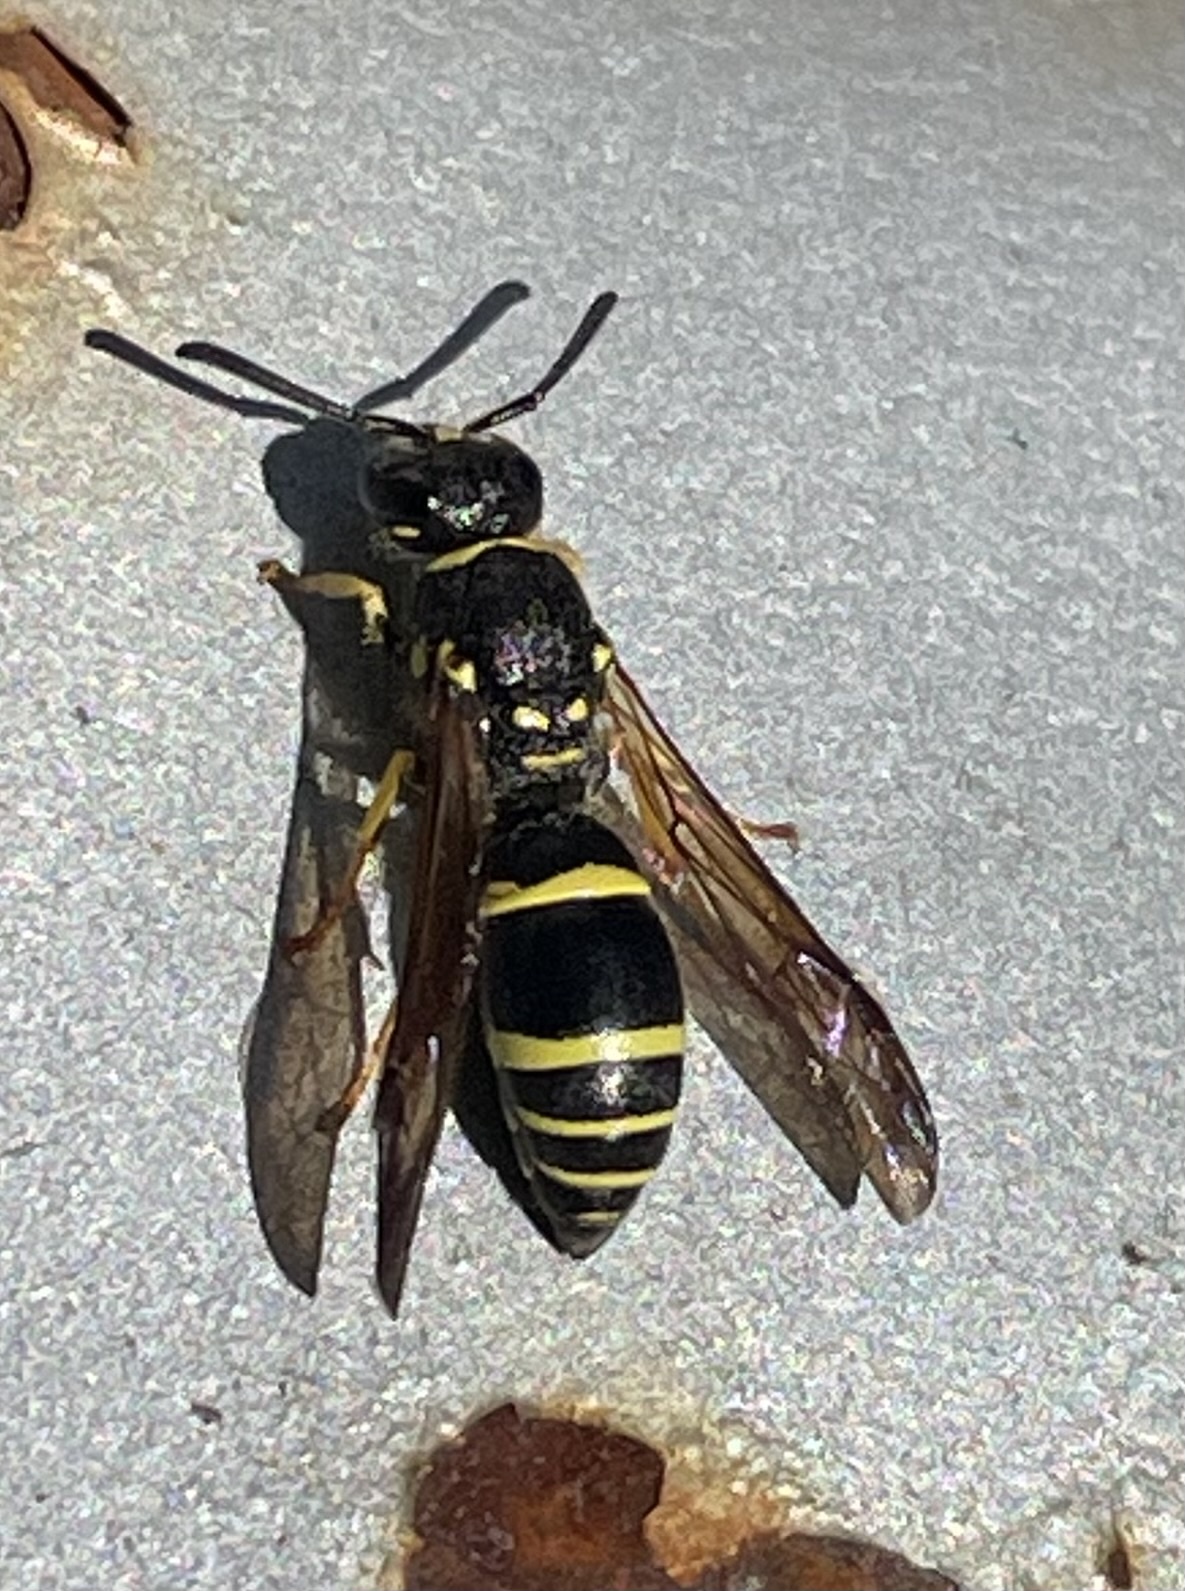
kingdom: Animalia
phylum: Arthropoda
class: Insecta
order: Hymenoptera
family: Vespidae
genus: Ancistrocerus
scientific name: Ancistrocerus adiabatus
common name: Bramble mason wasp
